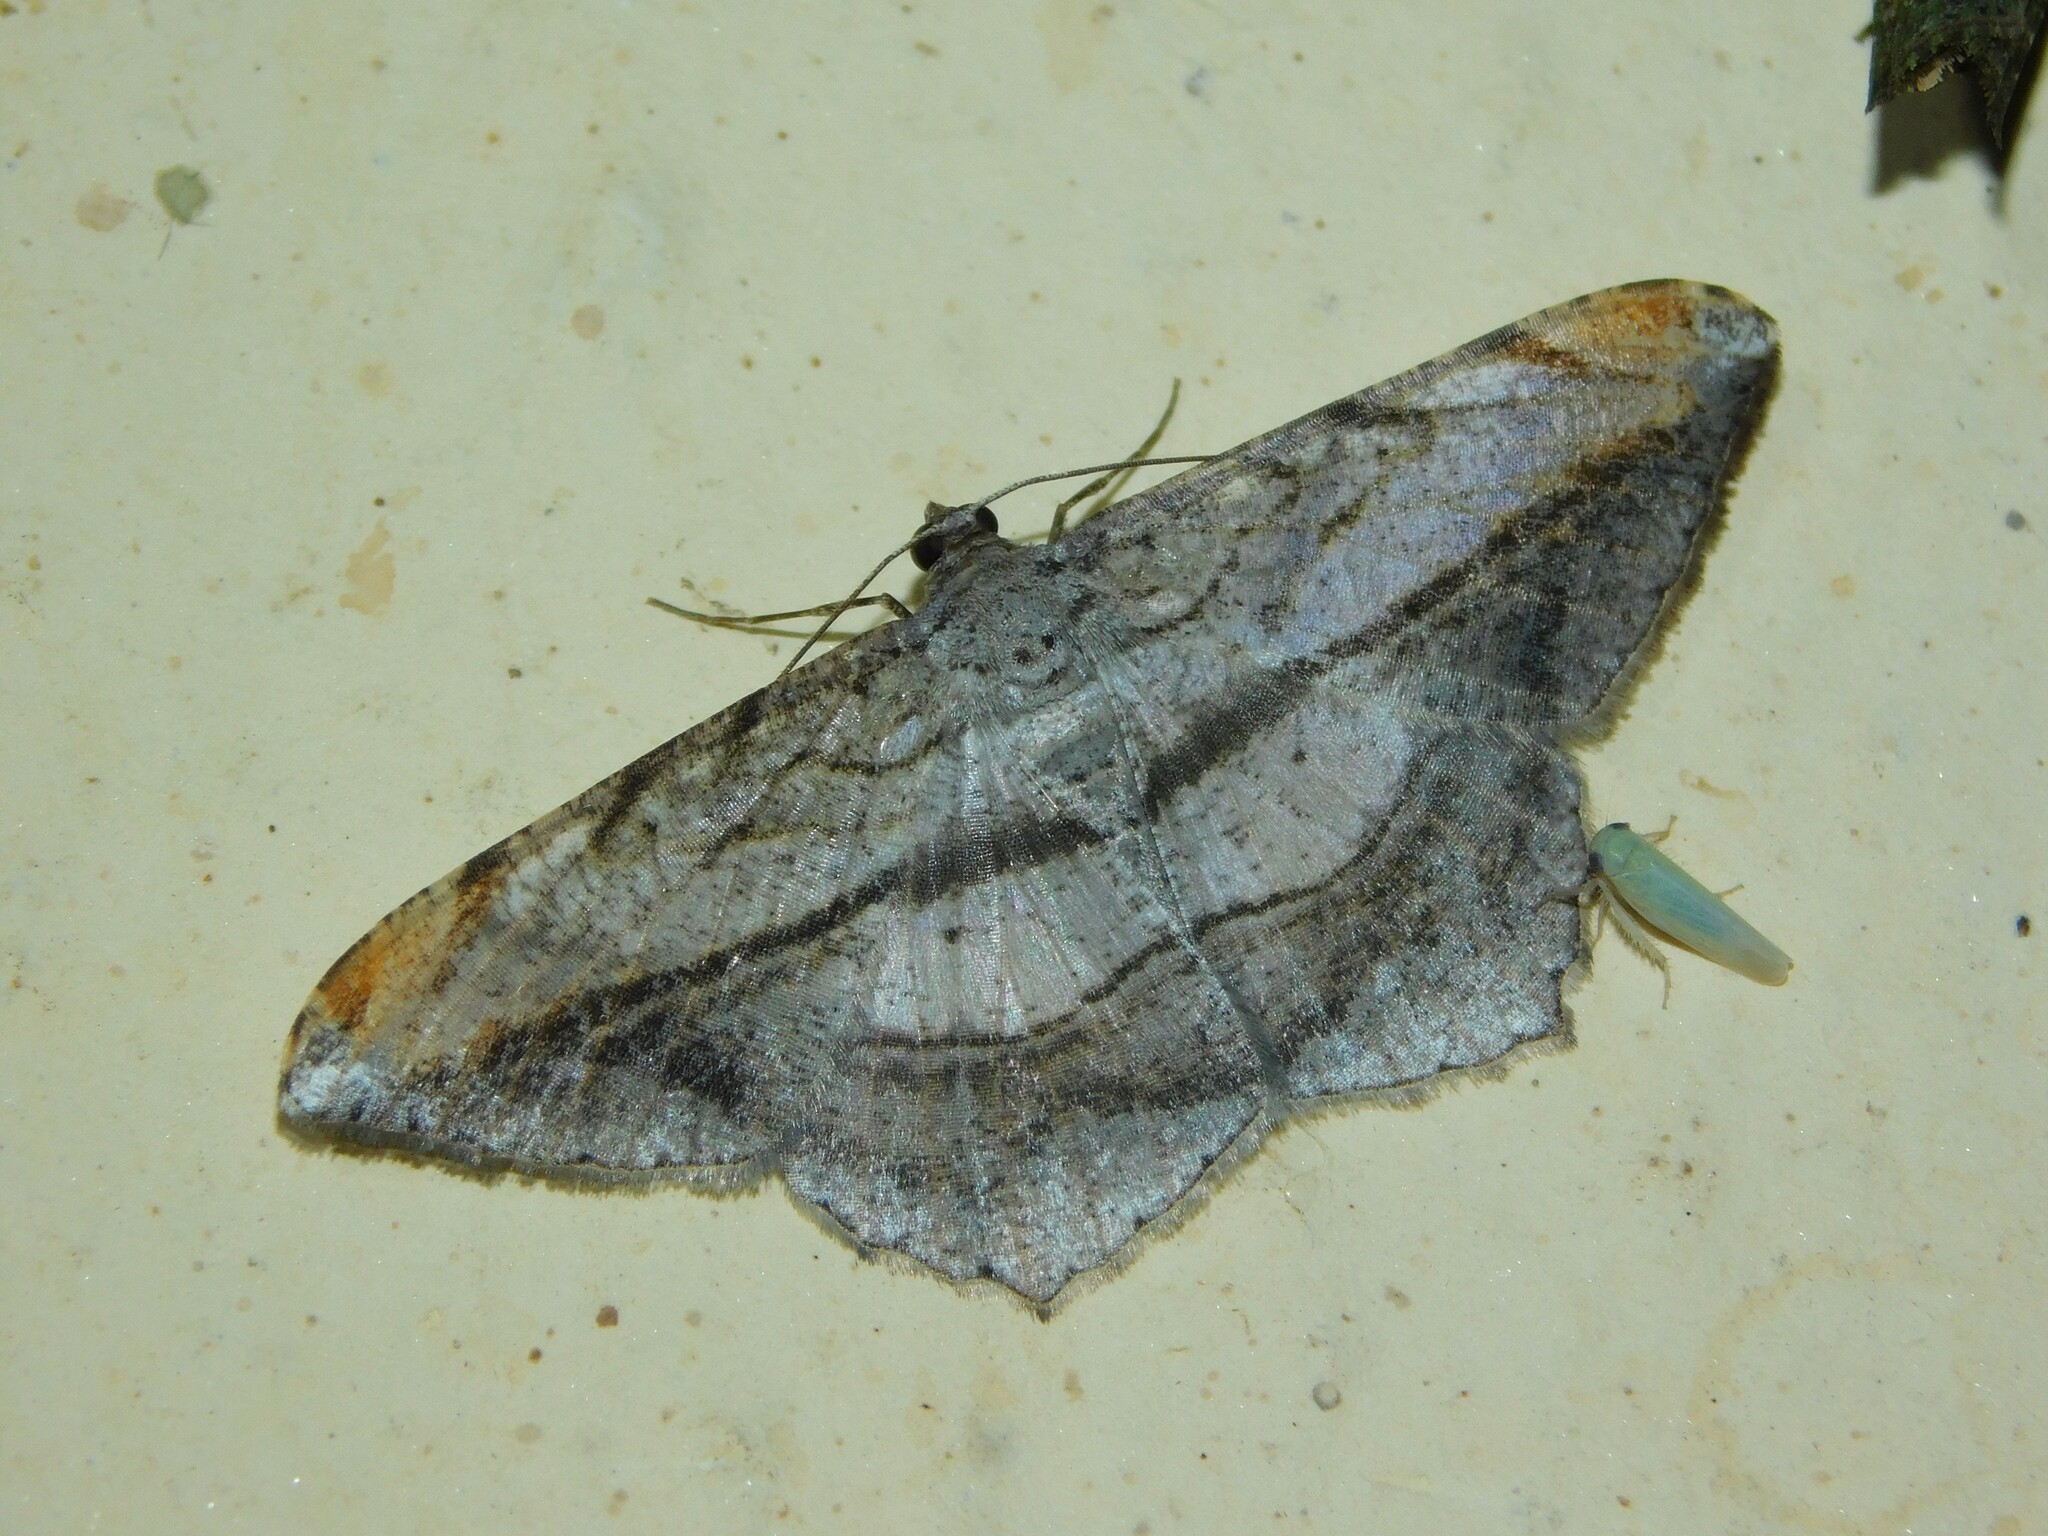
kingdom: Animalia
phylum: Arthropoda
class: Insecta
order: Lepidoptera
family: Geometridae
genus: Chiasmia
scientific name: Chiasmia fulvisparsa
